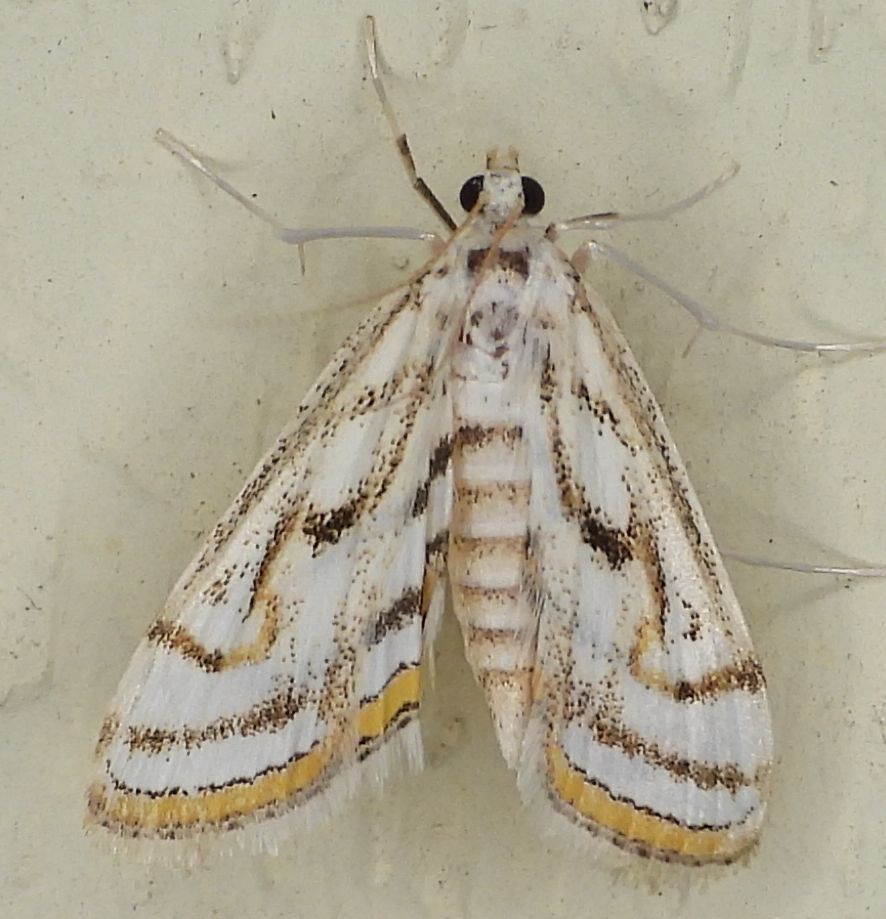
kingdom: Animalia
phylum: Arthropoda
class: Insecta
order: Lepidoptera
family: Crambidae
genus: Parapoynx
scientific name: Parapoynx badiusalis
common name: Chestnut-marked pondweed moth
